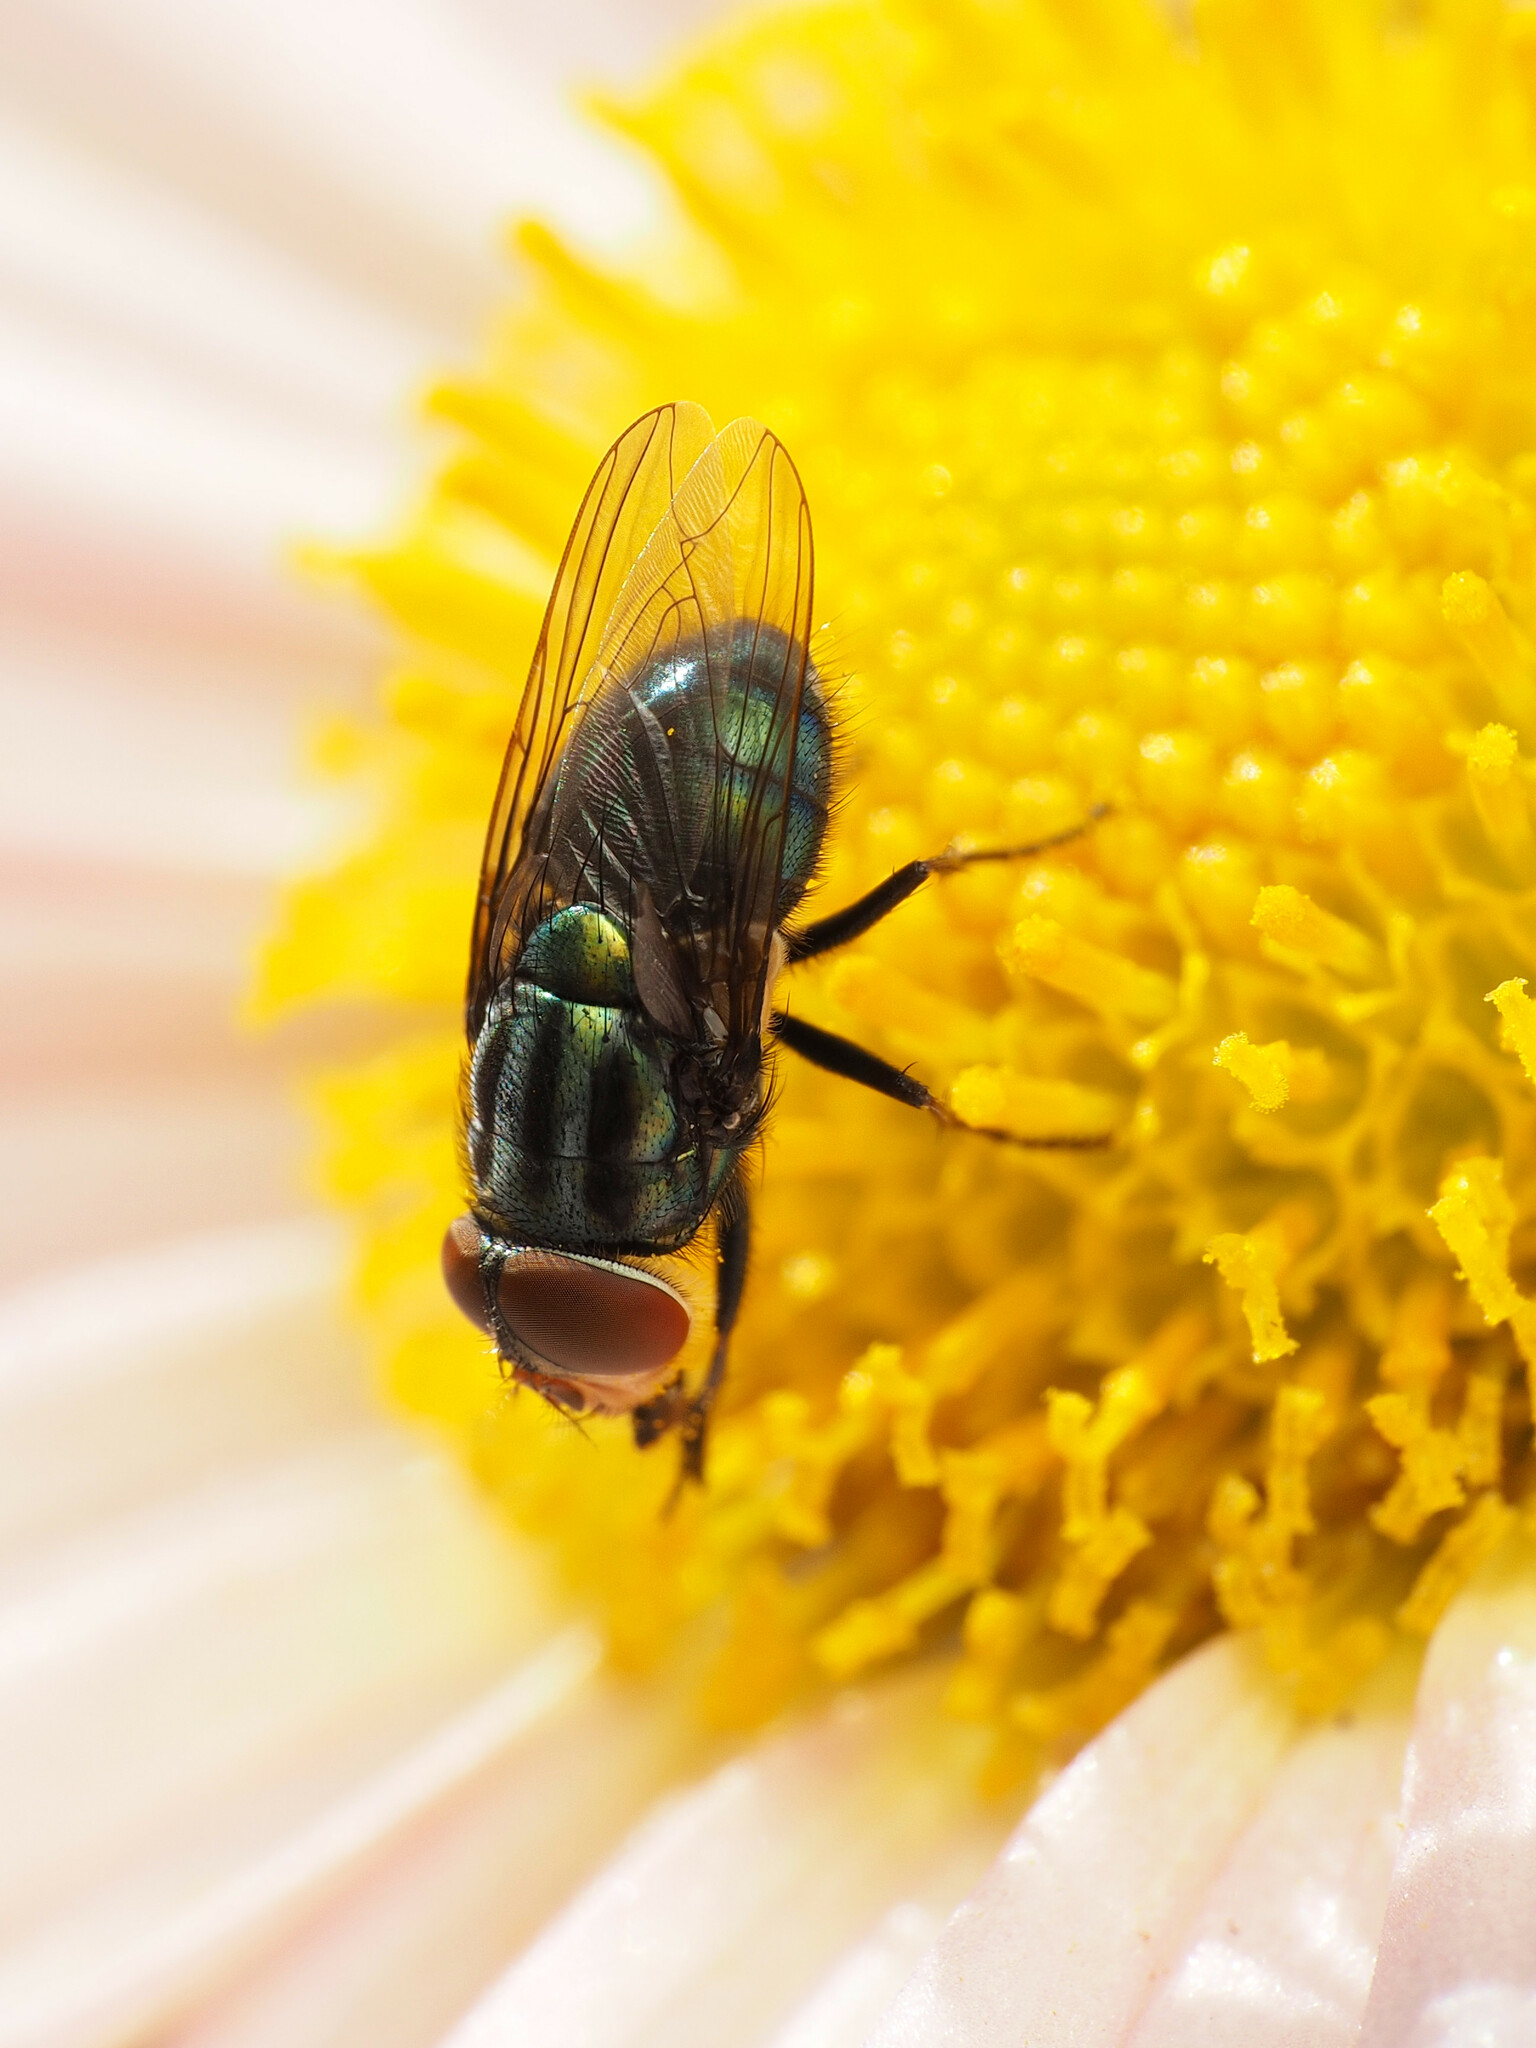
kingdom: Animalia
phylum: Arthropoda
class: Insecta
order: Diptera
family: Calliphoridae
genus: Cochliomyia
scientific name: Cochliomyia macellaria
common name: Secondary screwworm
